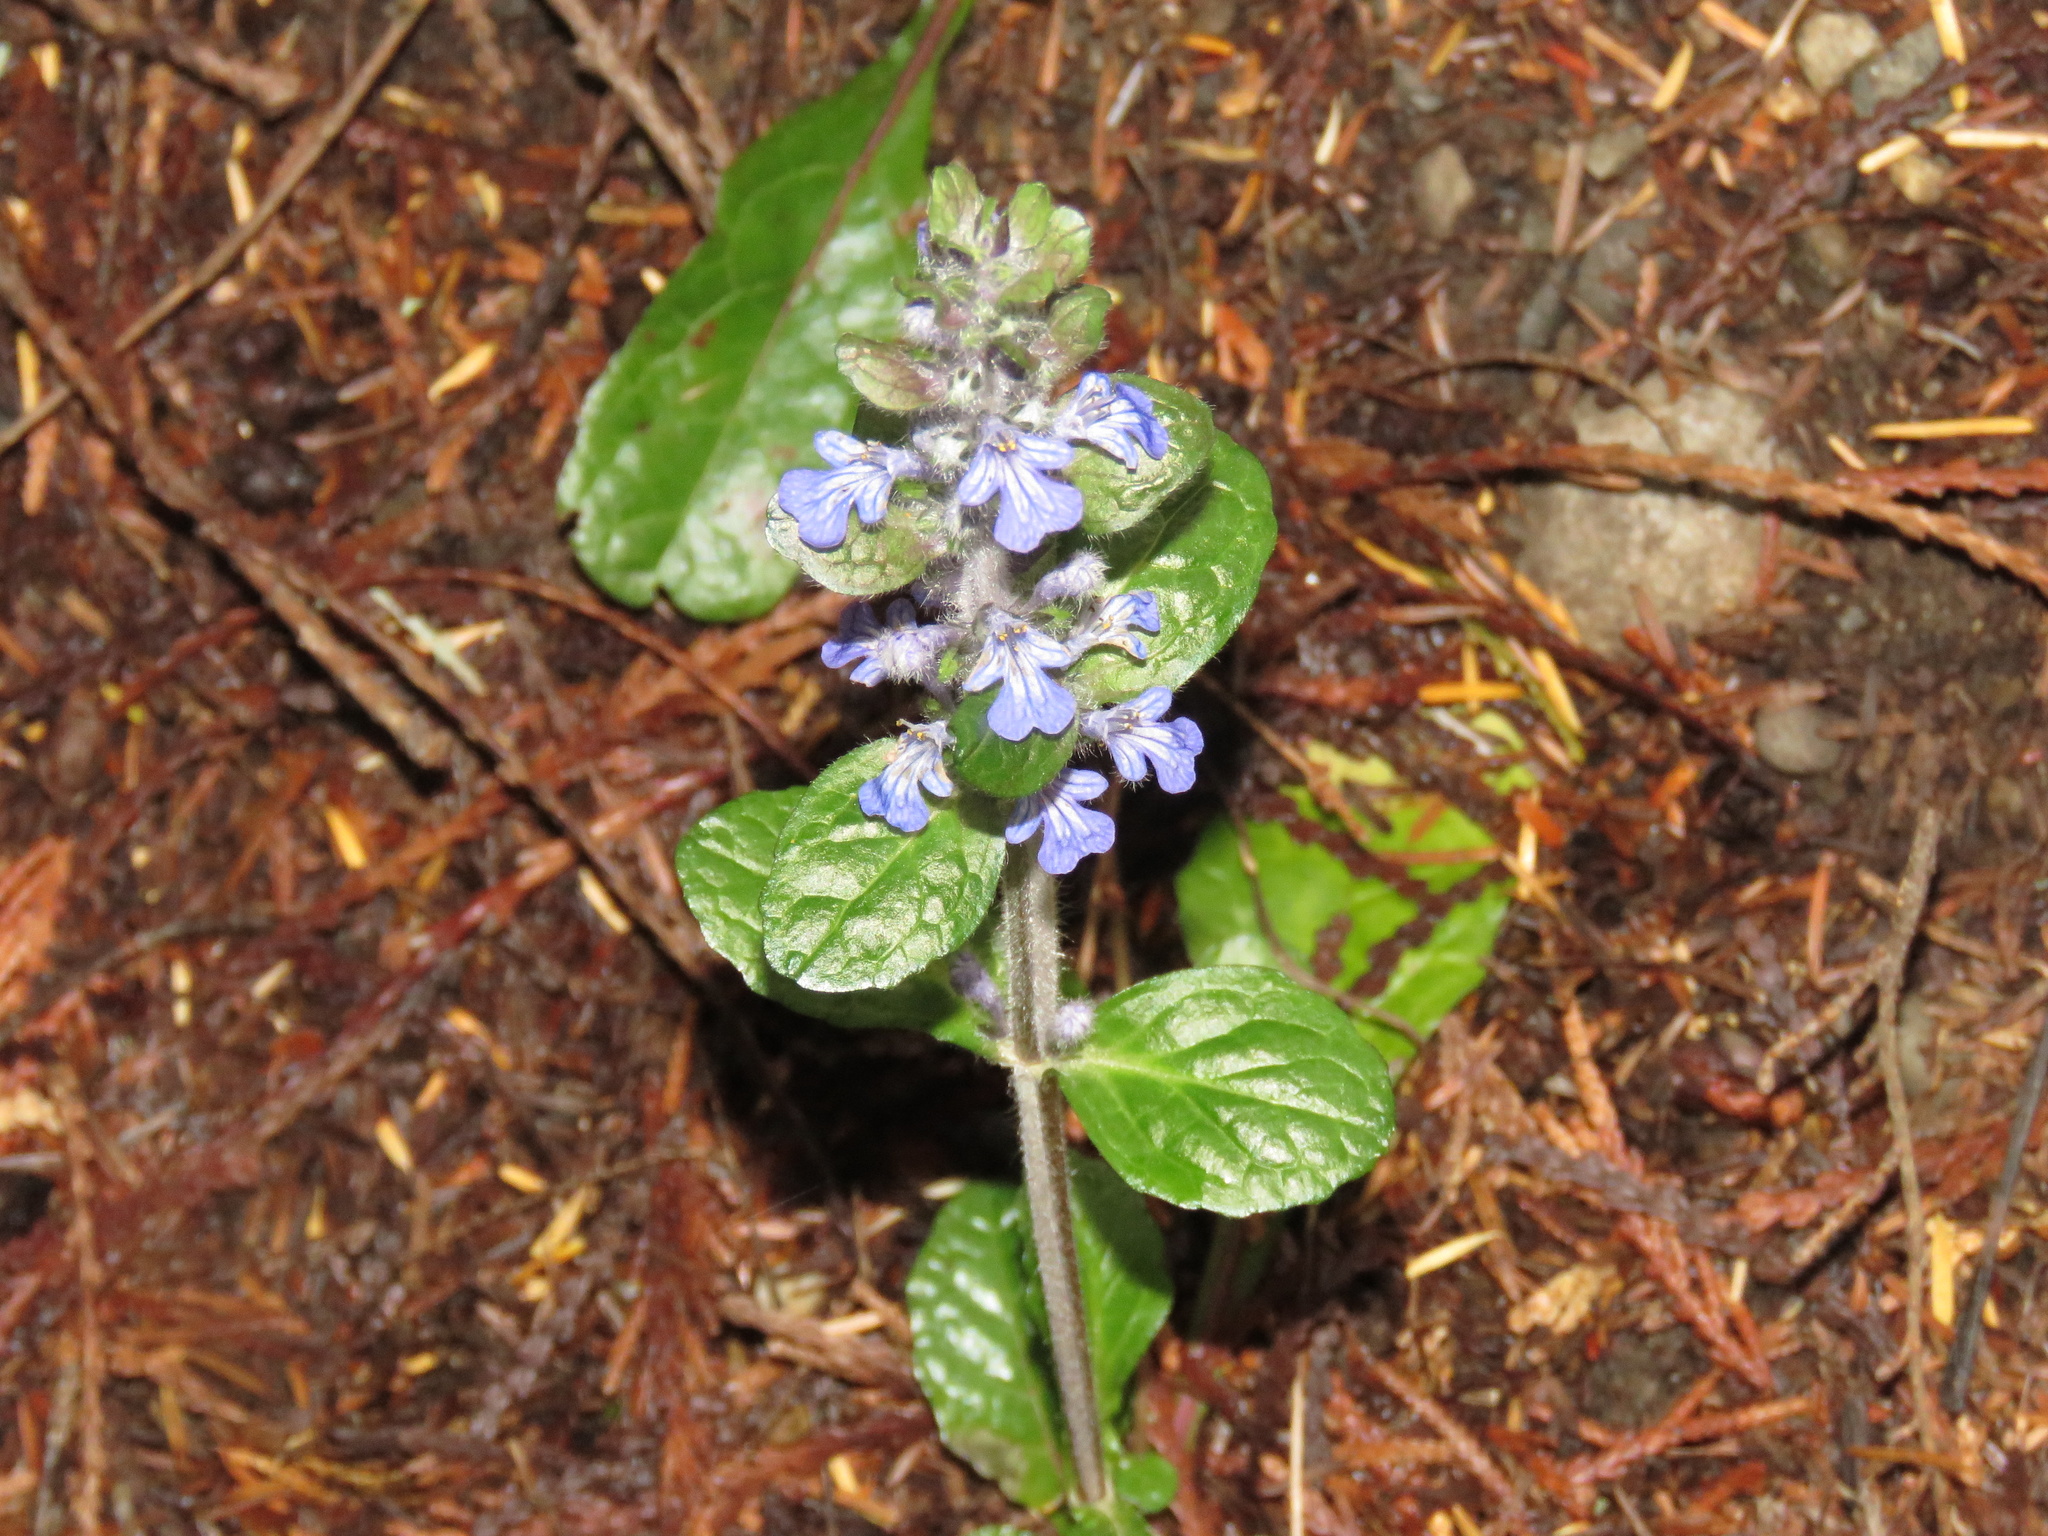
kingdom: Plantae
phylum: Tracheophyta
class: Magnoliopsida
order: Lamiales
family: Lamiaceae
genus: Ajuga
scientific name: Ajuga reptans
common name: Bugle
